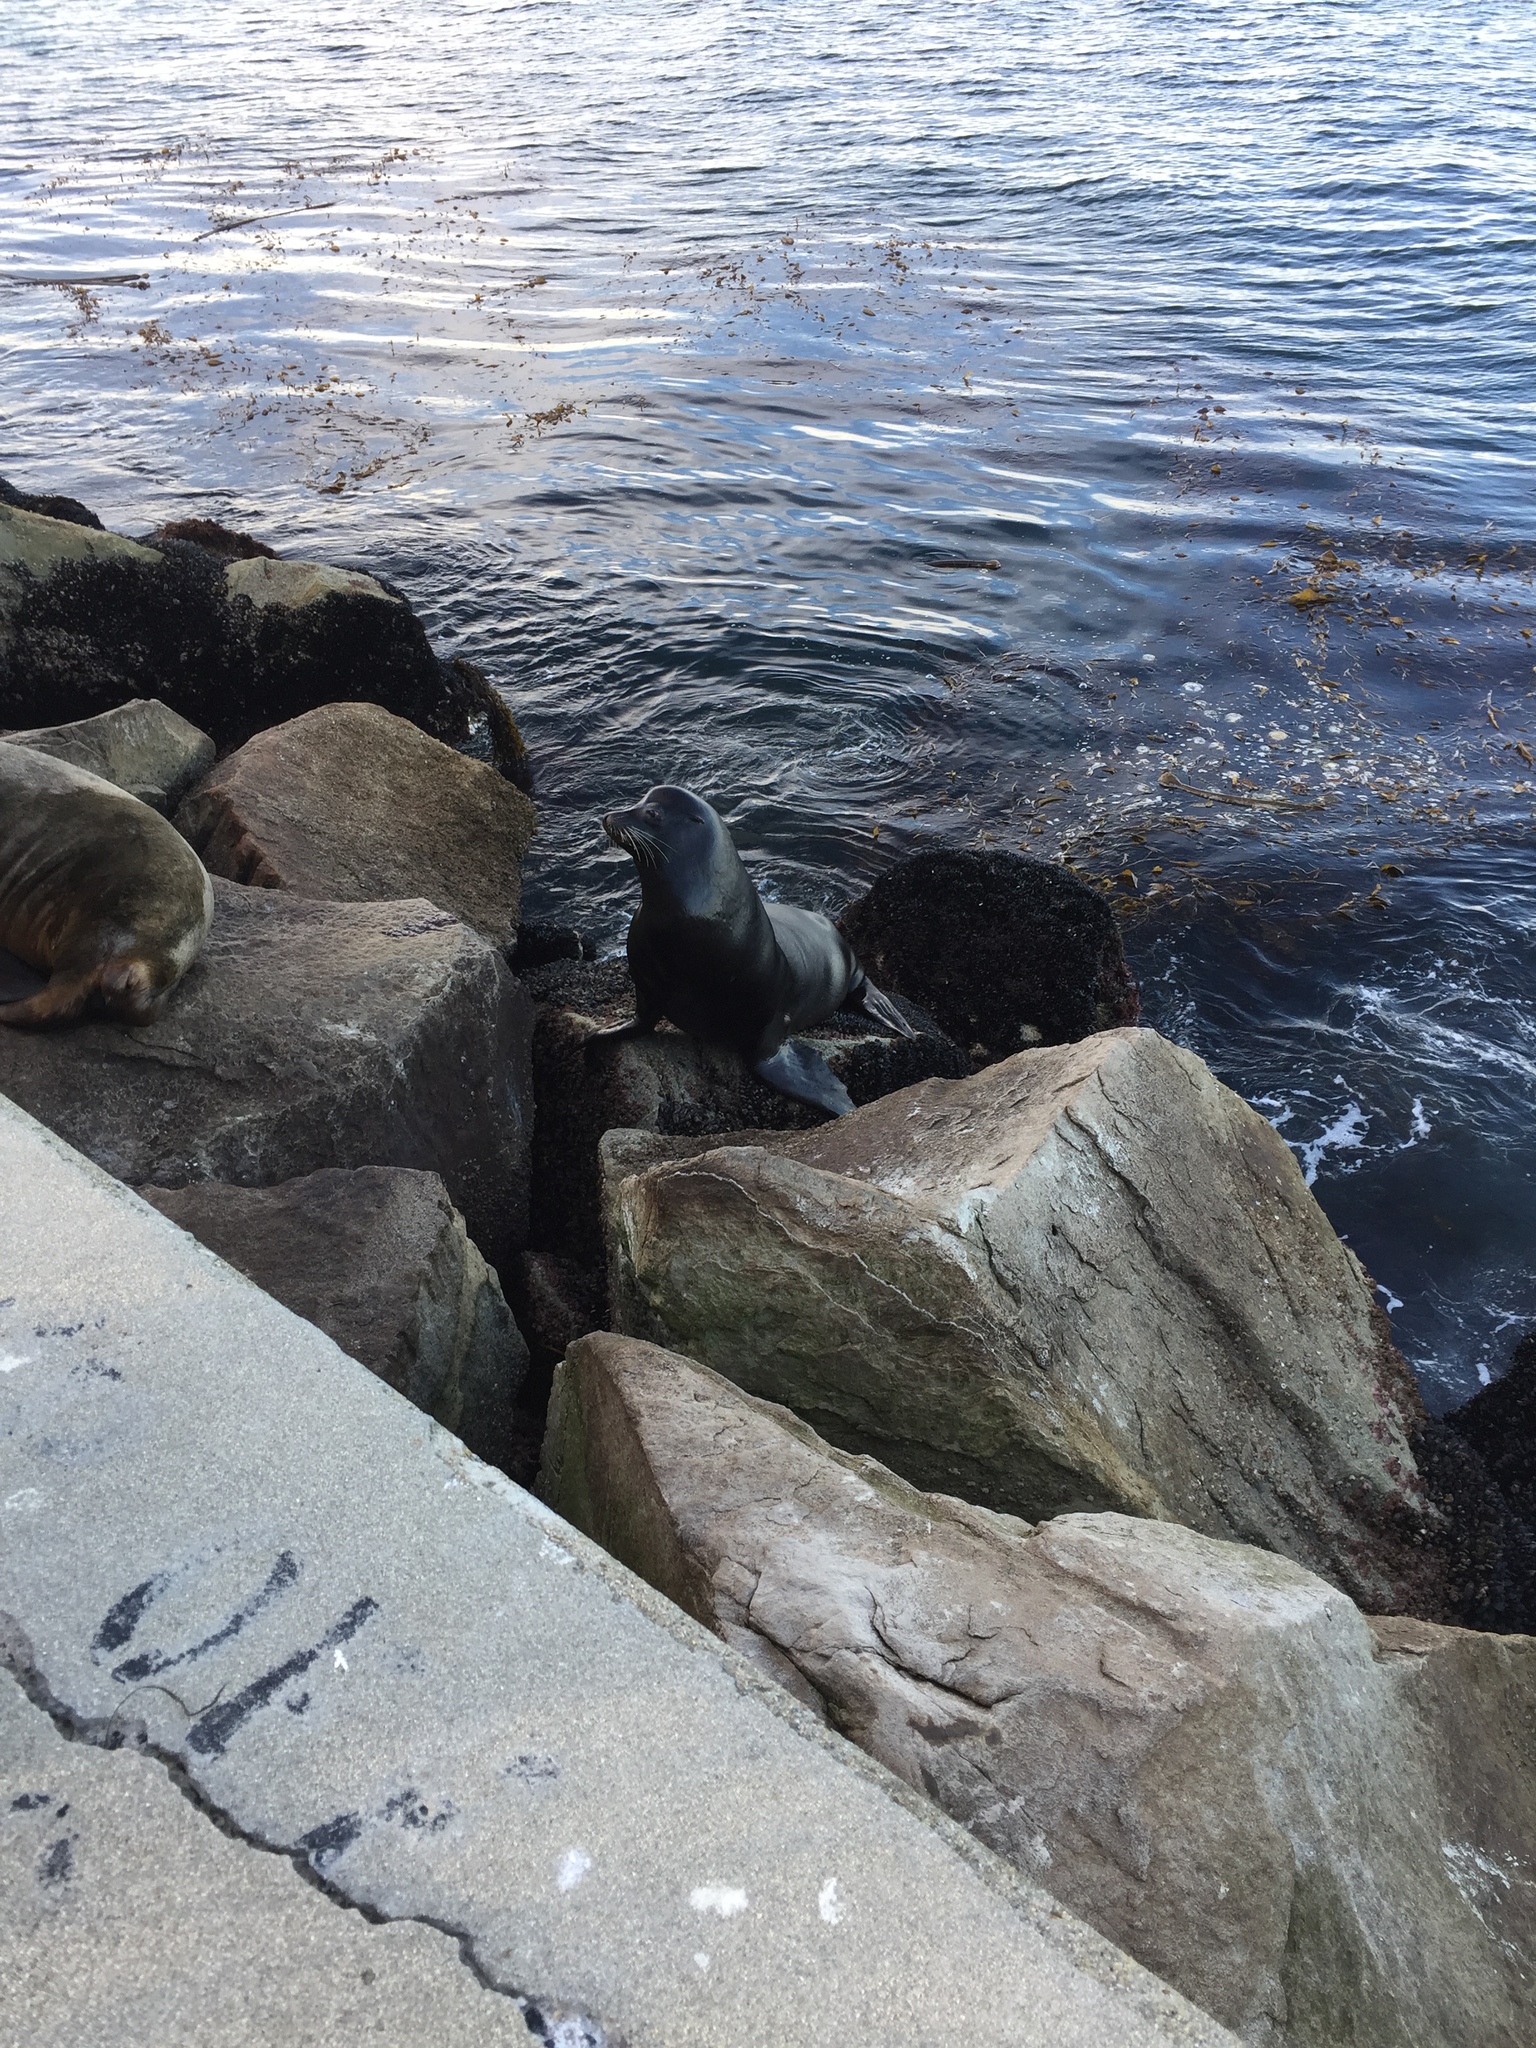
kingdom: Animalia
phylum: Chordata
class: Mammalia
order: Carnivora
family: Otariidae
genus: Zalophus
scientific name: Zalophus californianus
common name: California sea lion
